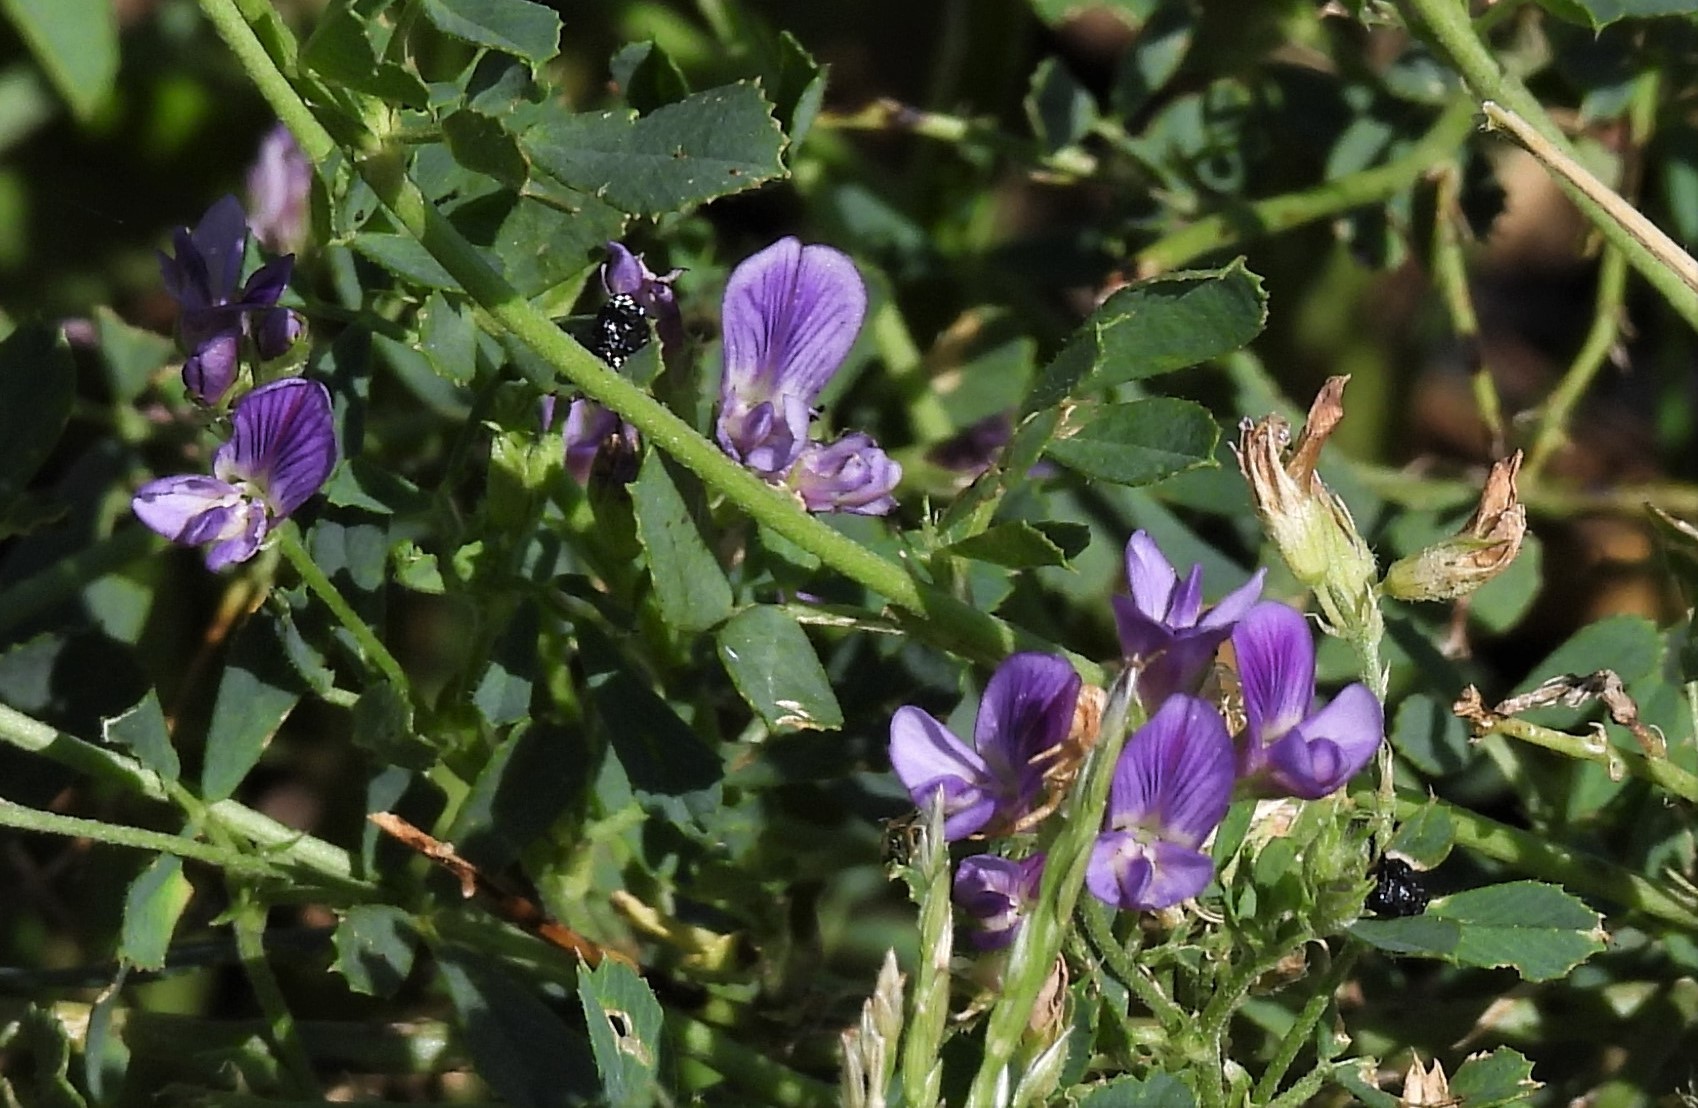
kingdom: Plantae
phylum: Tracheophyta
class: Magnoliopsida
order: Fabales
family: Fabaceae
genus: Medicago
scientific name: Medicago sativa
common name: Alfalfa
